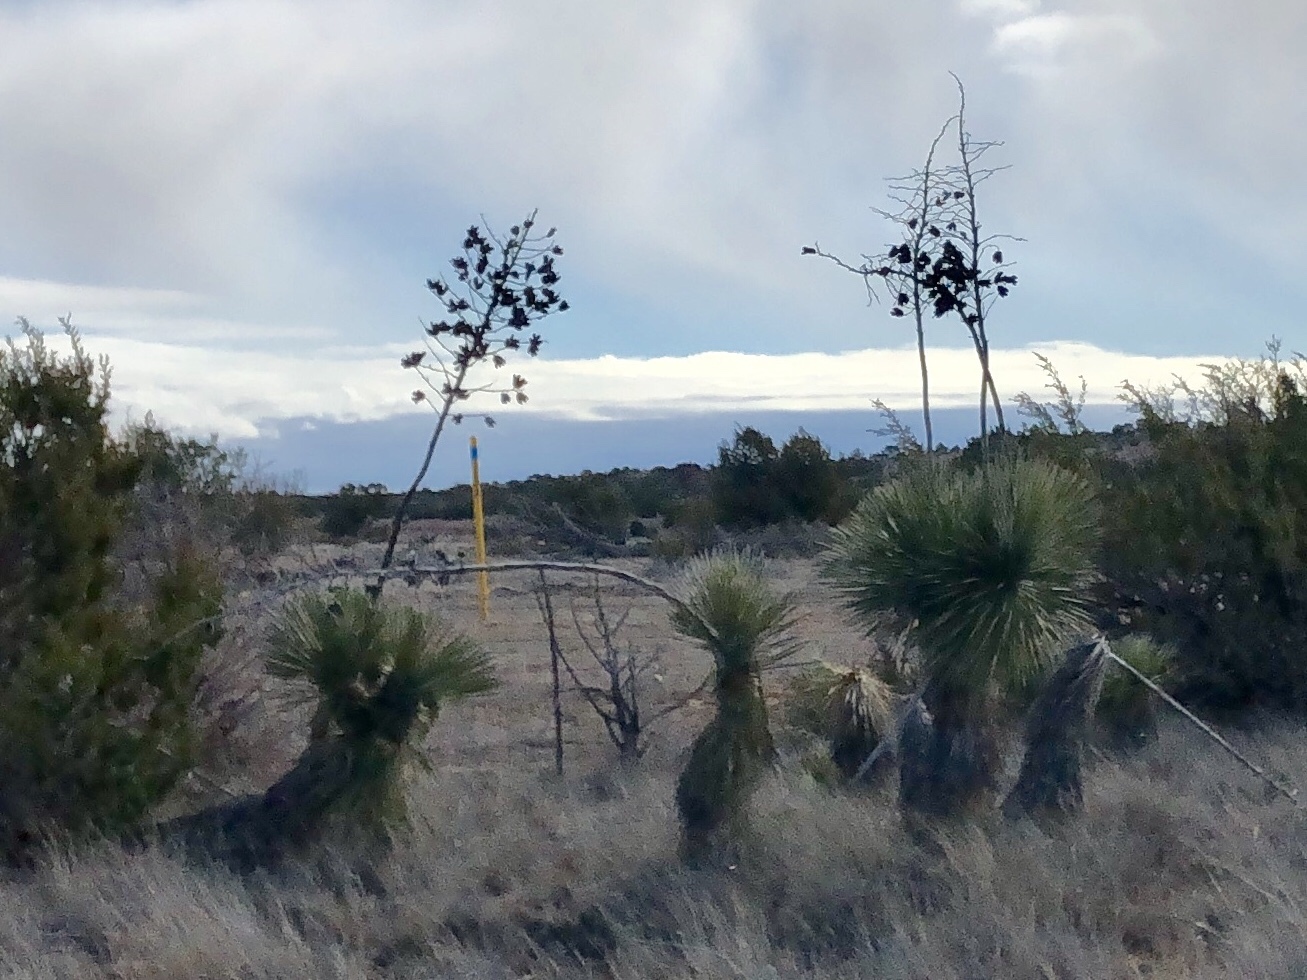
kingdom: Plantae
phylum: Tracheophyta
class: Liliopsida
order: Asparagales
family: Asparagaceae
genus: Yucca
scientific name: Yucca elata
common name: Palmella
